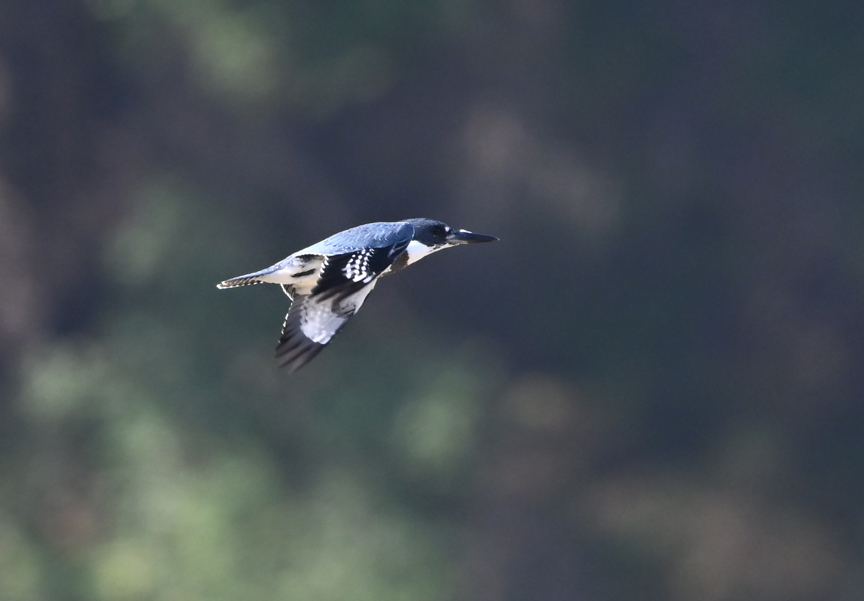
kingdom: Animalia
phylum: Chordata
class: Aves
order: Coraciiformes
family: Alcedinidae
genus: Megaceryle
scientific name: Megaceryle alcyon
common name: Belted kingfisher
